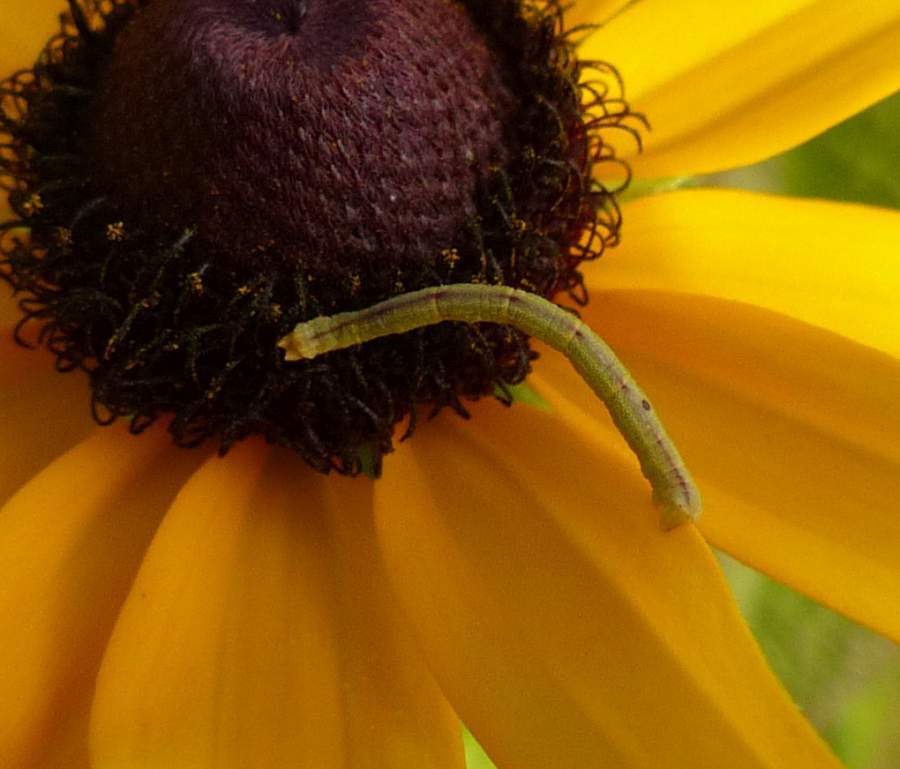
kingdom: Animalia
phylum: Arthropoda
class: Insecta
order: Lepidoptera
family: Geometridae
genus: Chlorochlamys
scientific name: Chlorochlamys chloroleucaria
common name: Blackberry looper
